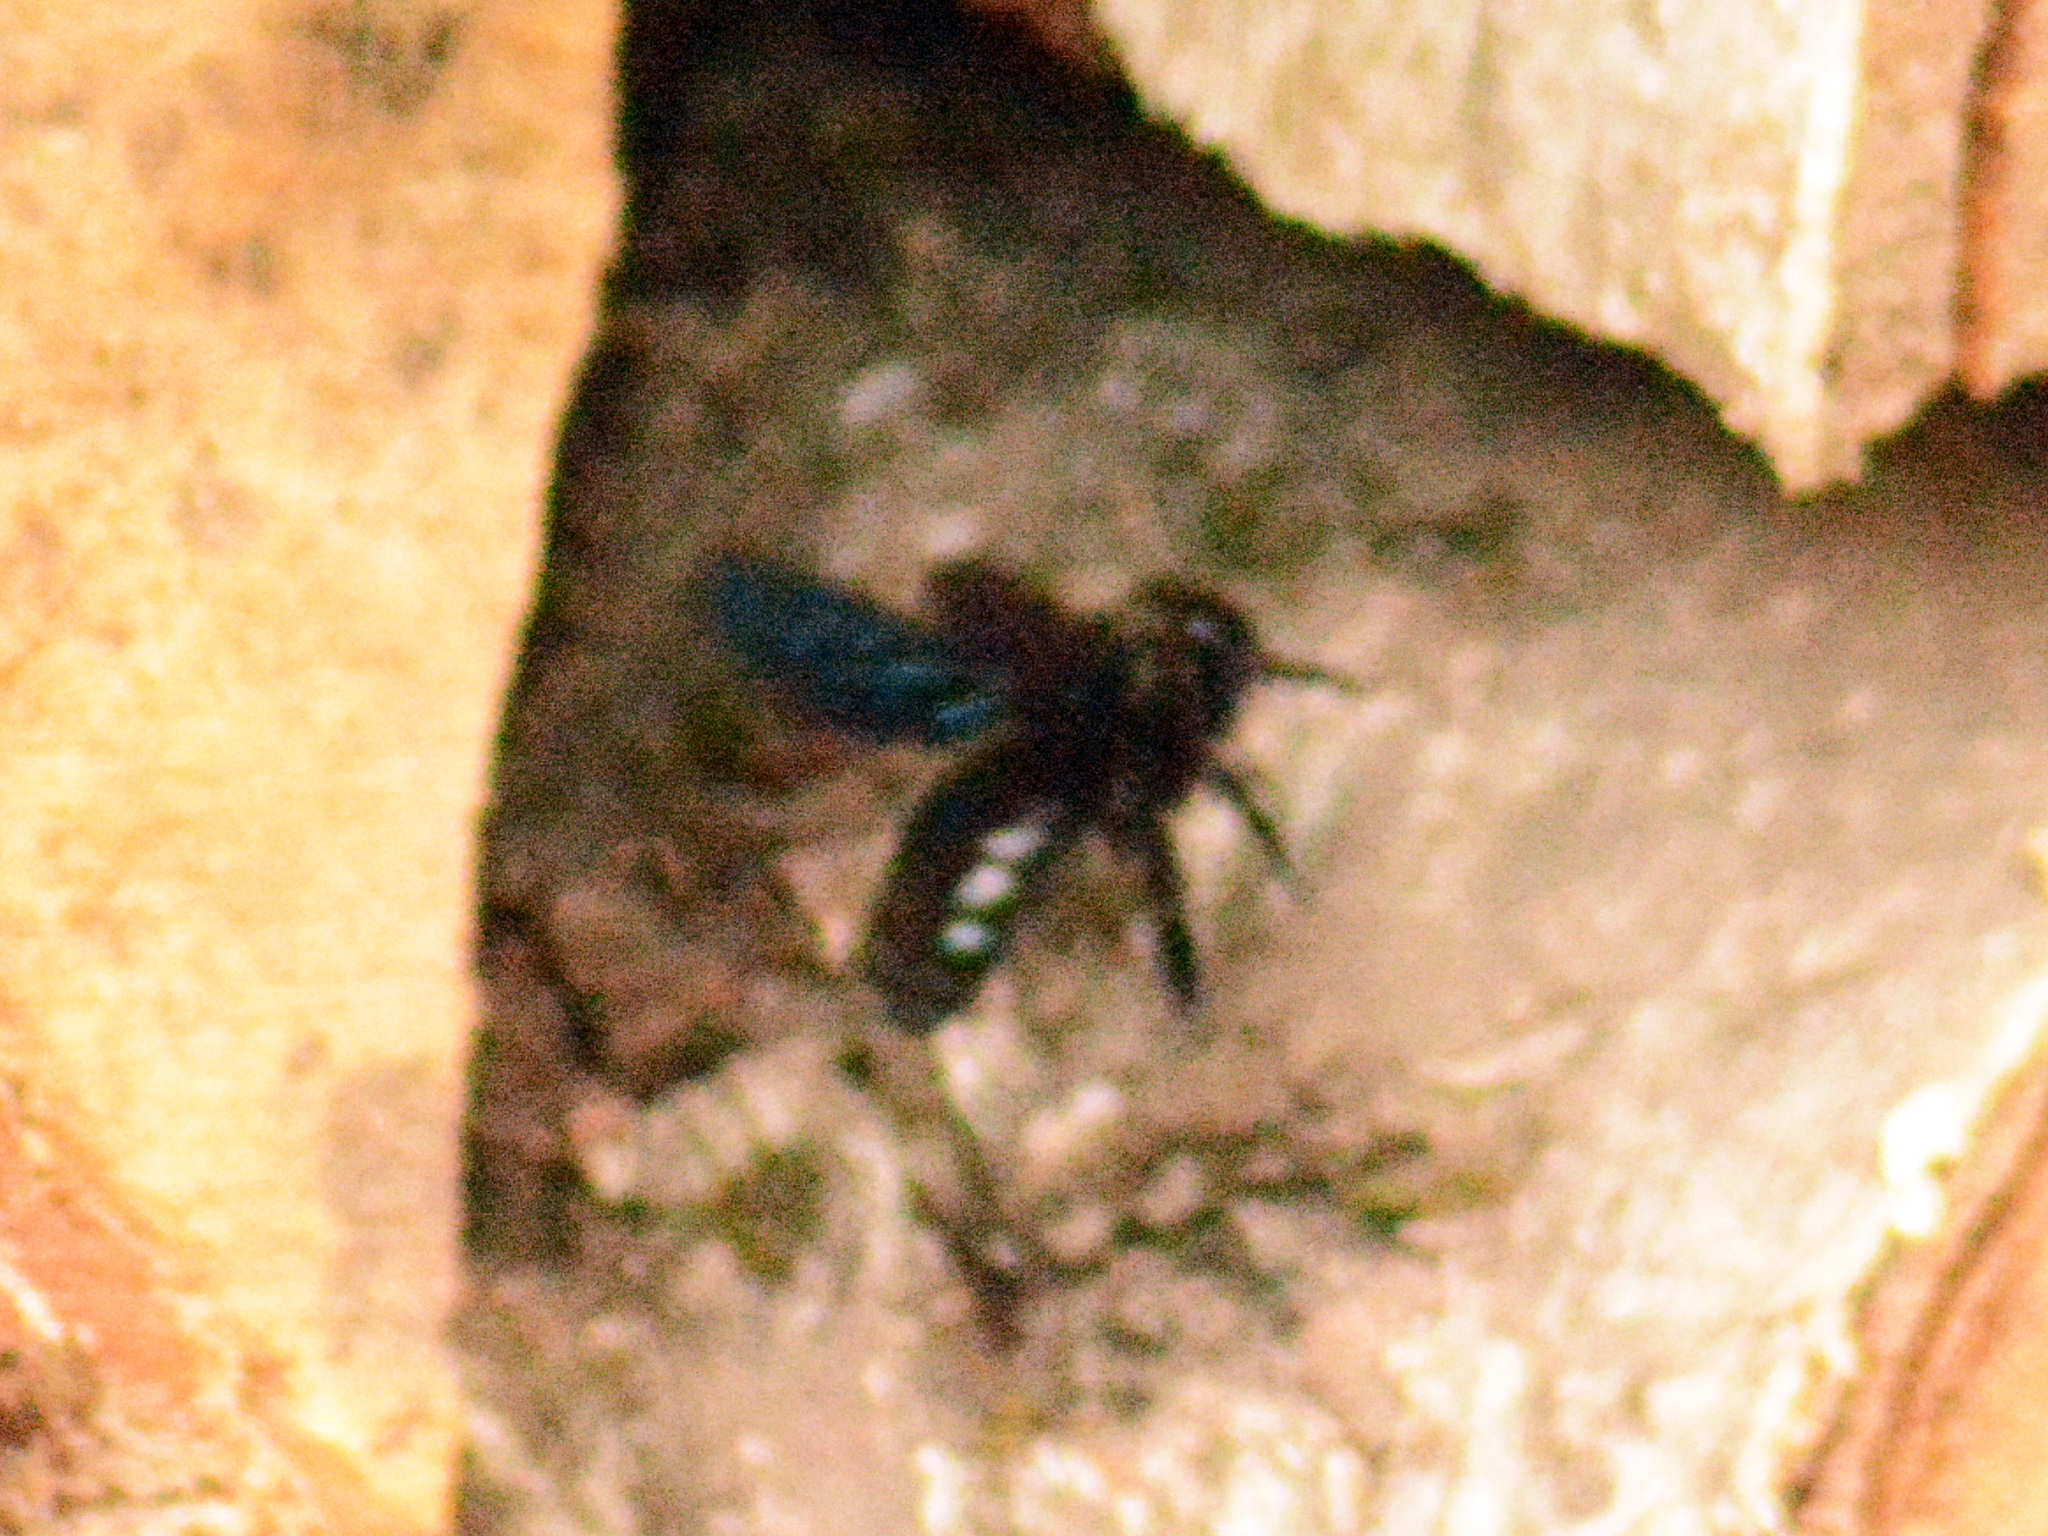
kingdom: Animalia
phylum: Arthropoda
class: Insecta
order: Hymenoptera
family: Apidae
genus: Xylocopa
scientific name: Xylocopa
